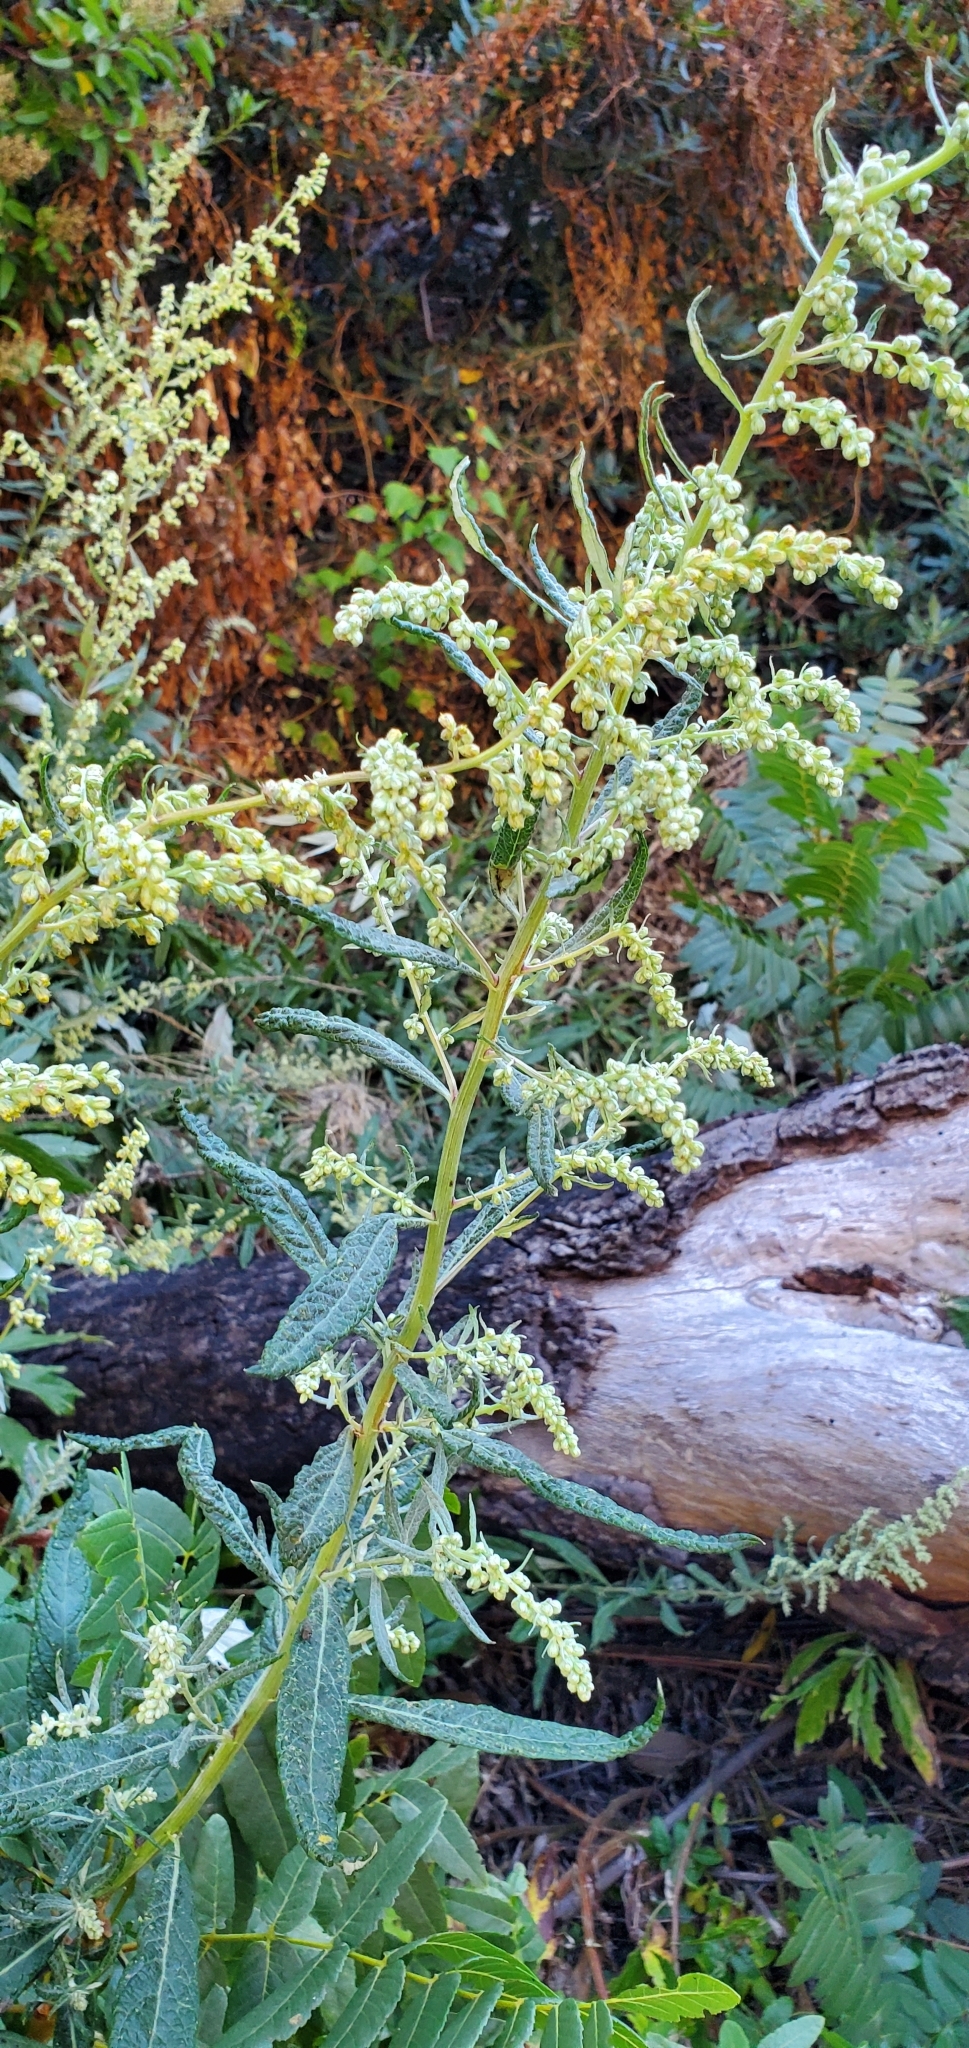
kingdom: Plantae
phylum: Tracheophyta
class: Magnoliopsida
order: Asterales
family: Asteraceae
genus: Artemisia
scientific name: Artemisia douglasiana
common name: Northwest mugwort
